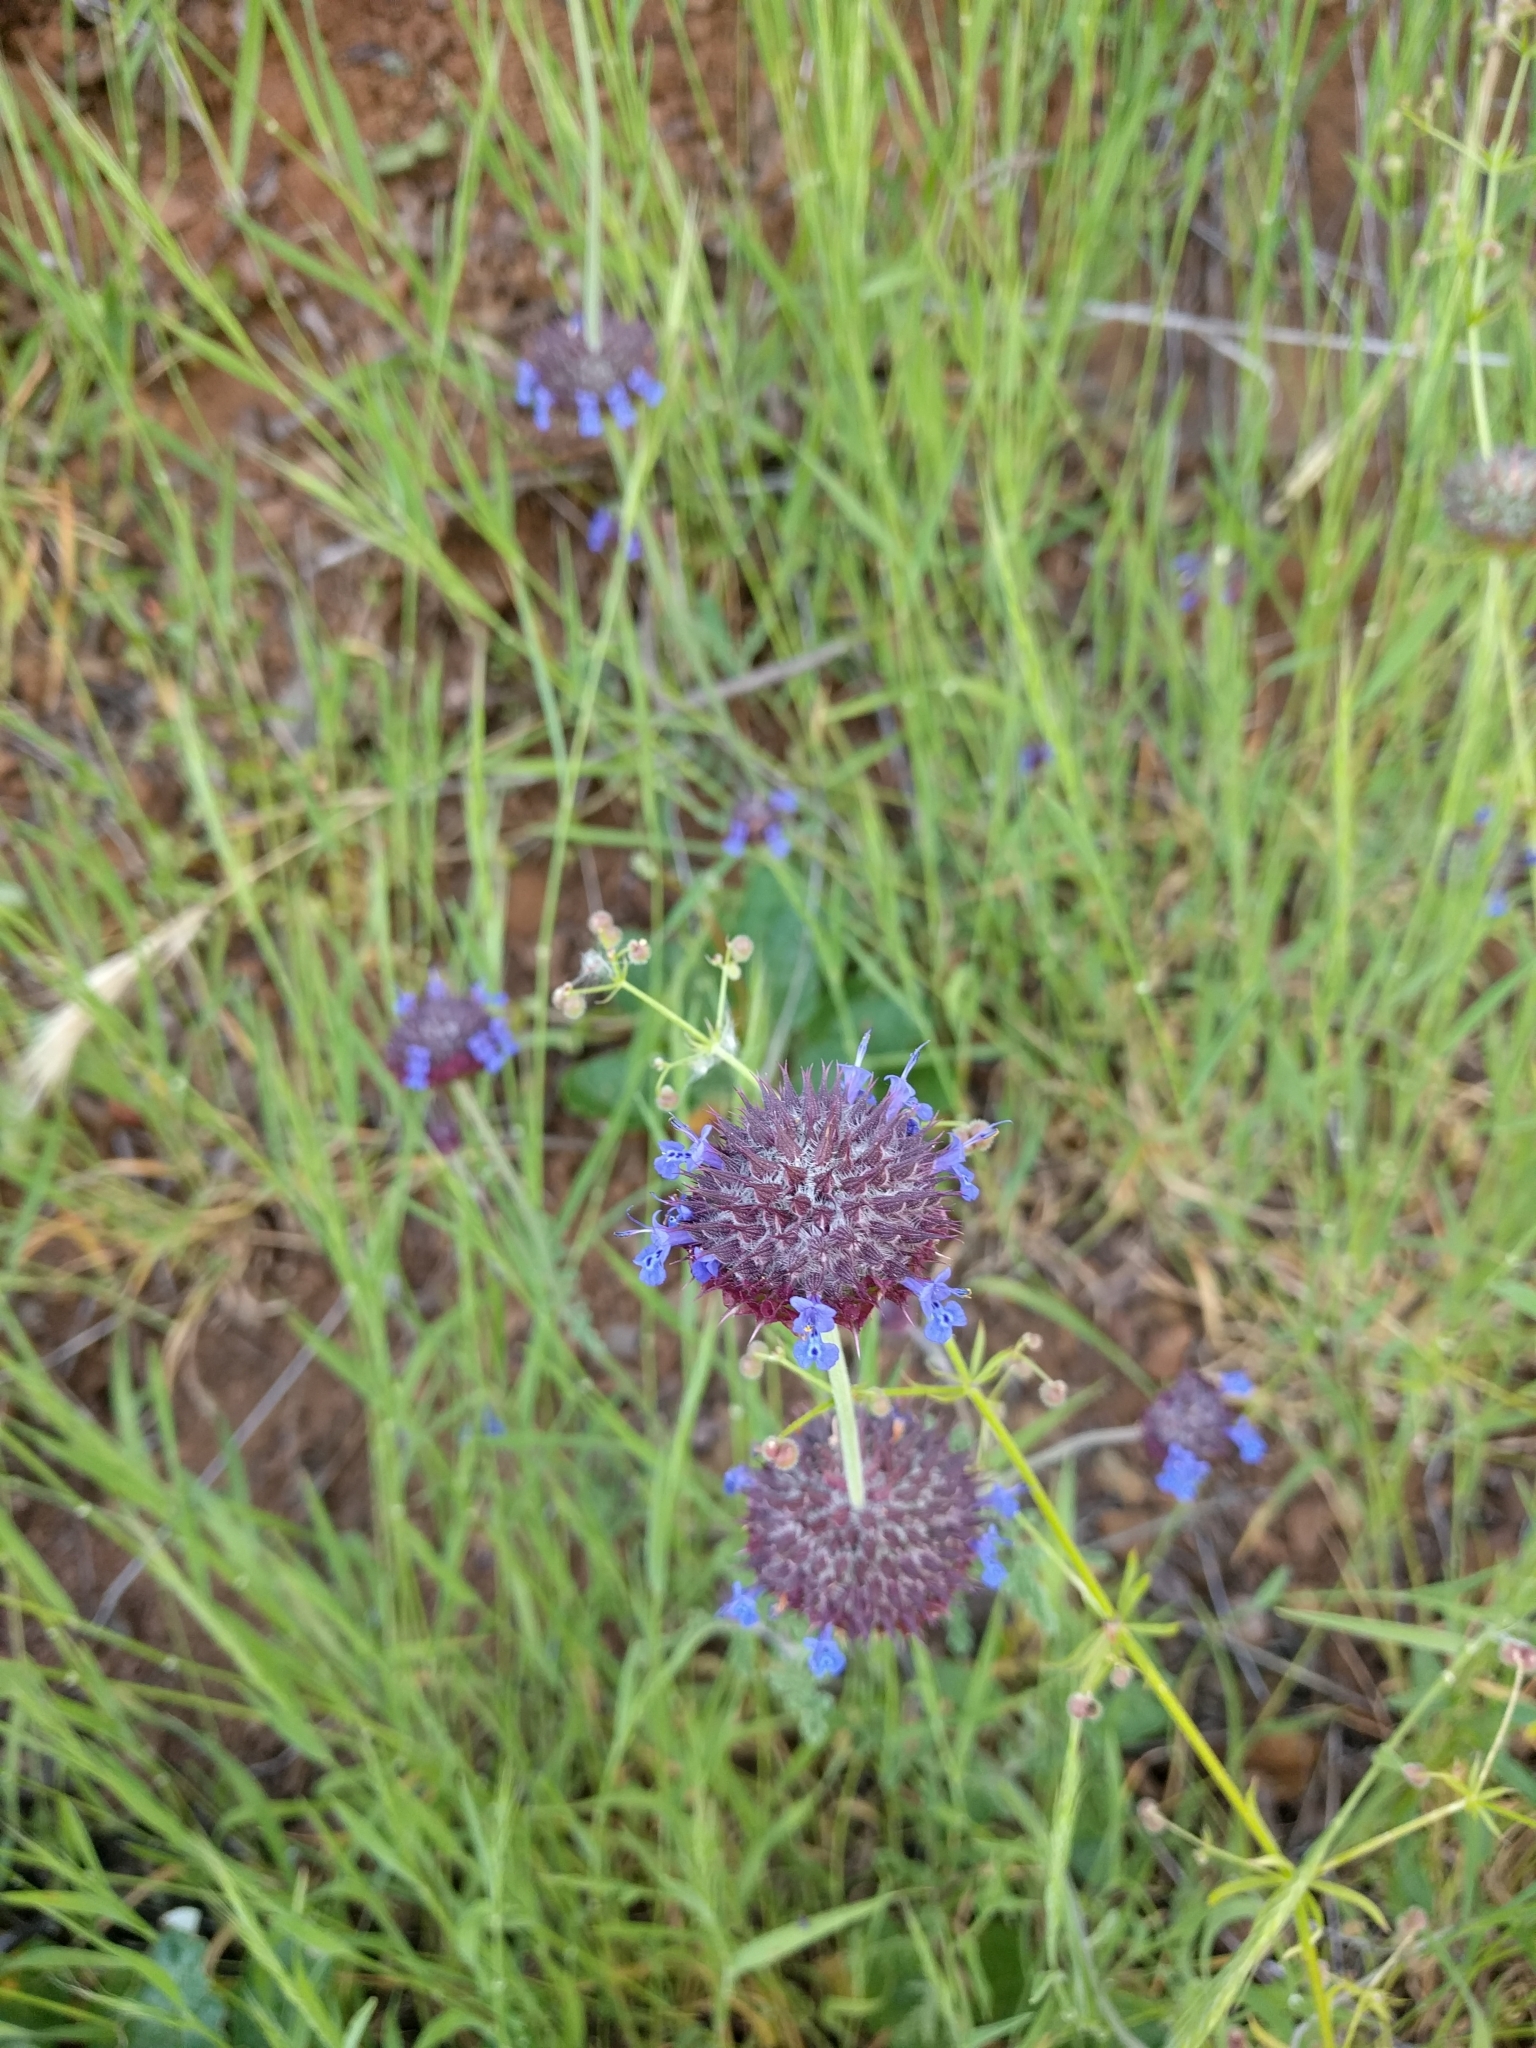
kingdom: Plantae
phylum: Tracheophyta
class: Magnoliopsida
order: Lamiales
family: Lamiaceae
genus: Salvia
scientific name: Salvia columbariae
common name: Chia
